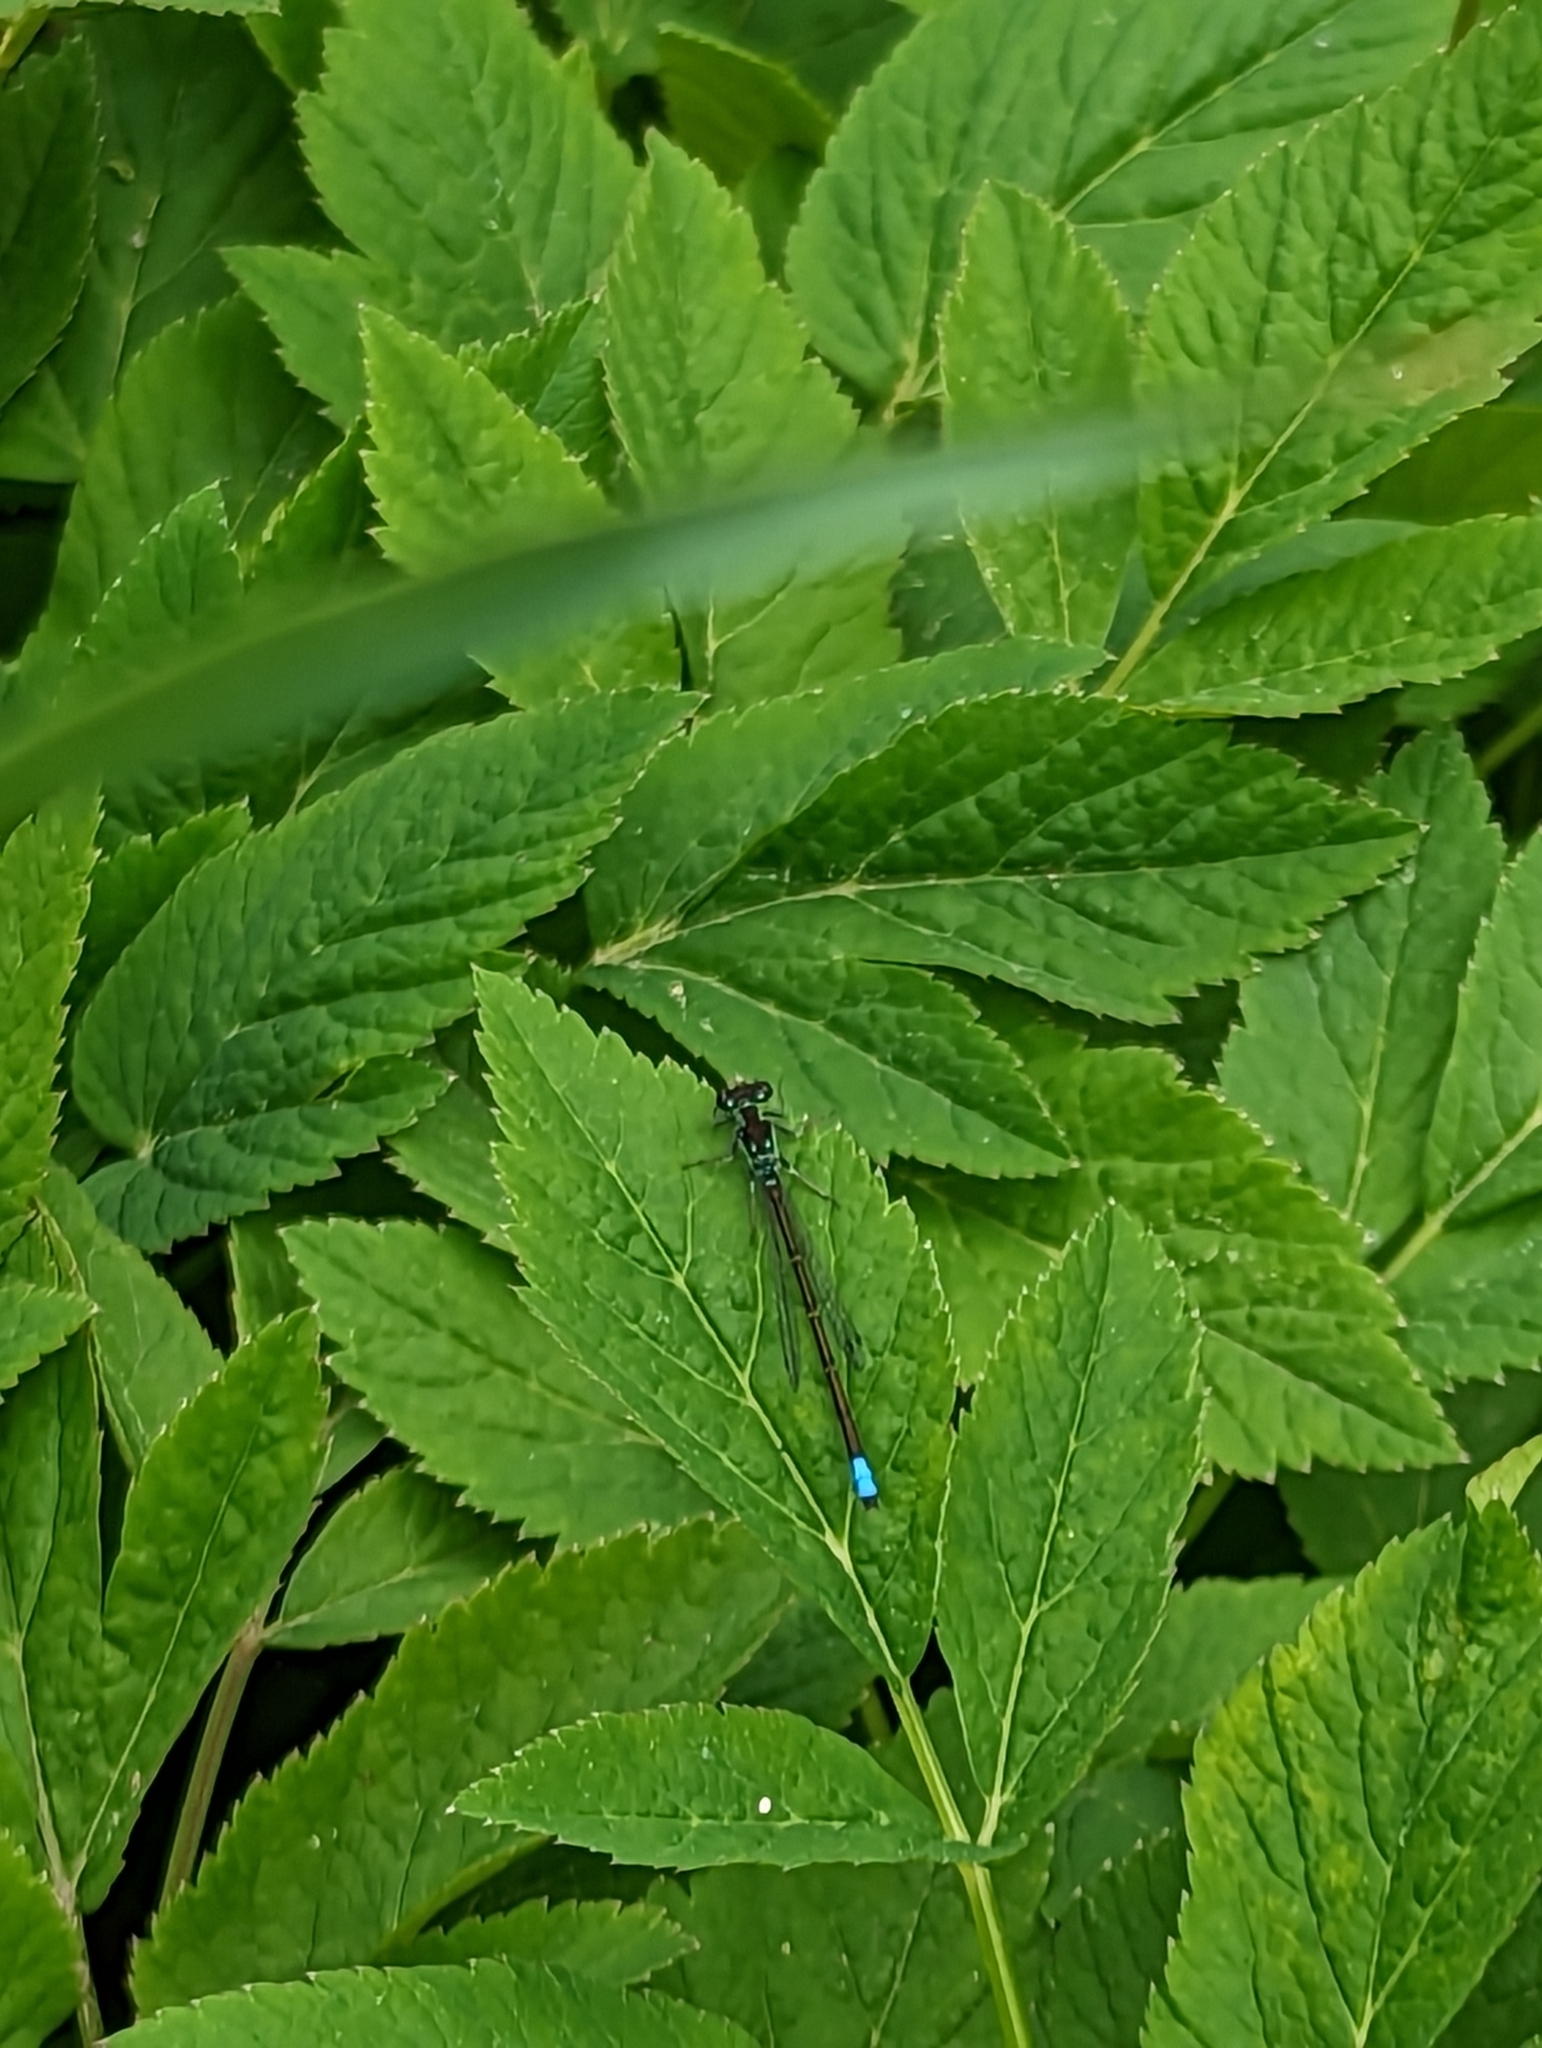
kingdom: Animalia
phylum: Arthropoda
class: Insecta
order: Odonata
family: Coenagrionidae
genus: Ischnura
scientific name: Ischnura verticalis
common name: Eastern forktail
